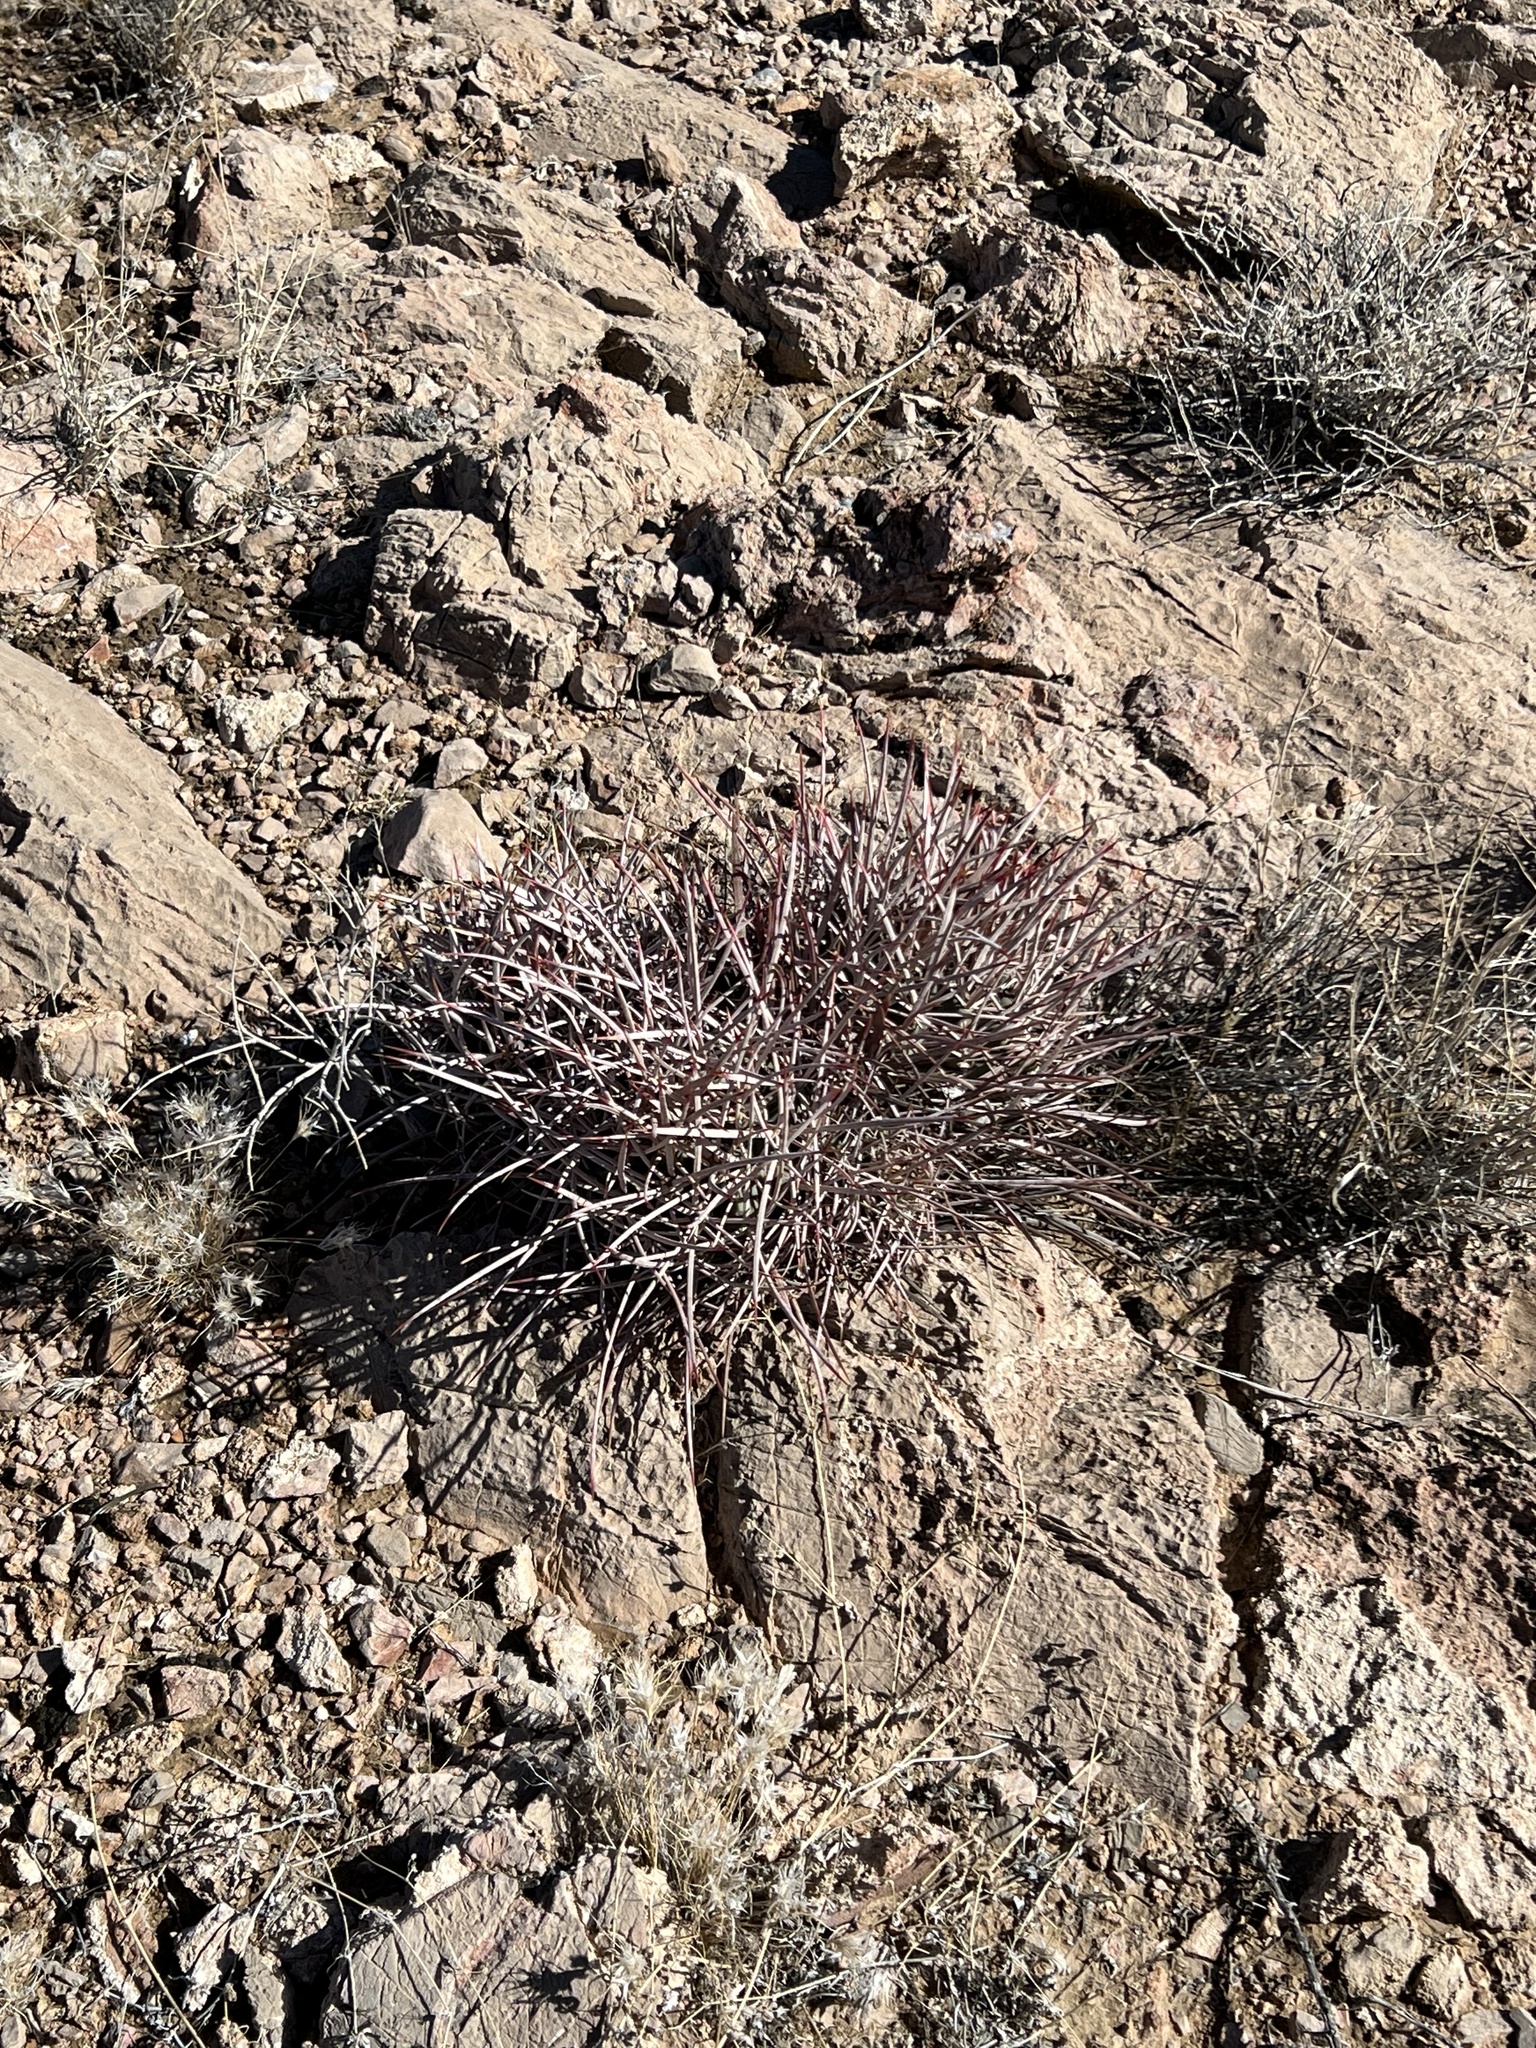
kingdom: Plantae
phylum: Tracheophyta
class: Magnoliopsida
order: Caryophyllales
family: Cactaceae
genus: Echinocactus
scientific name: Echinocactus polycephalus
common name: Cottontop cactus
